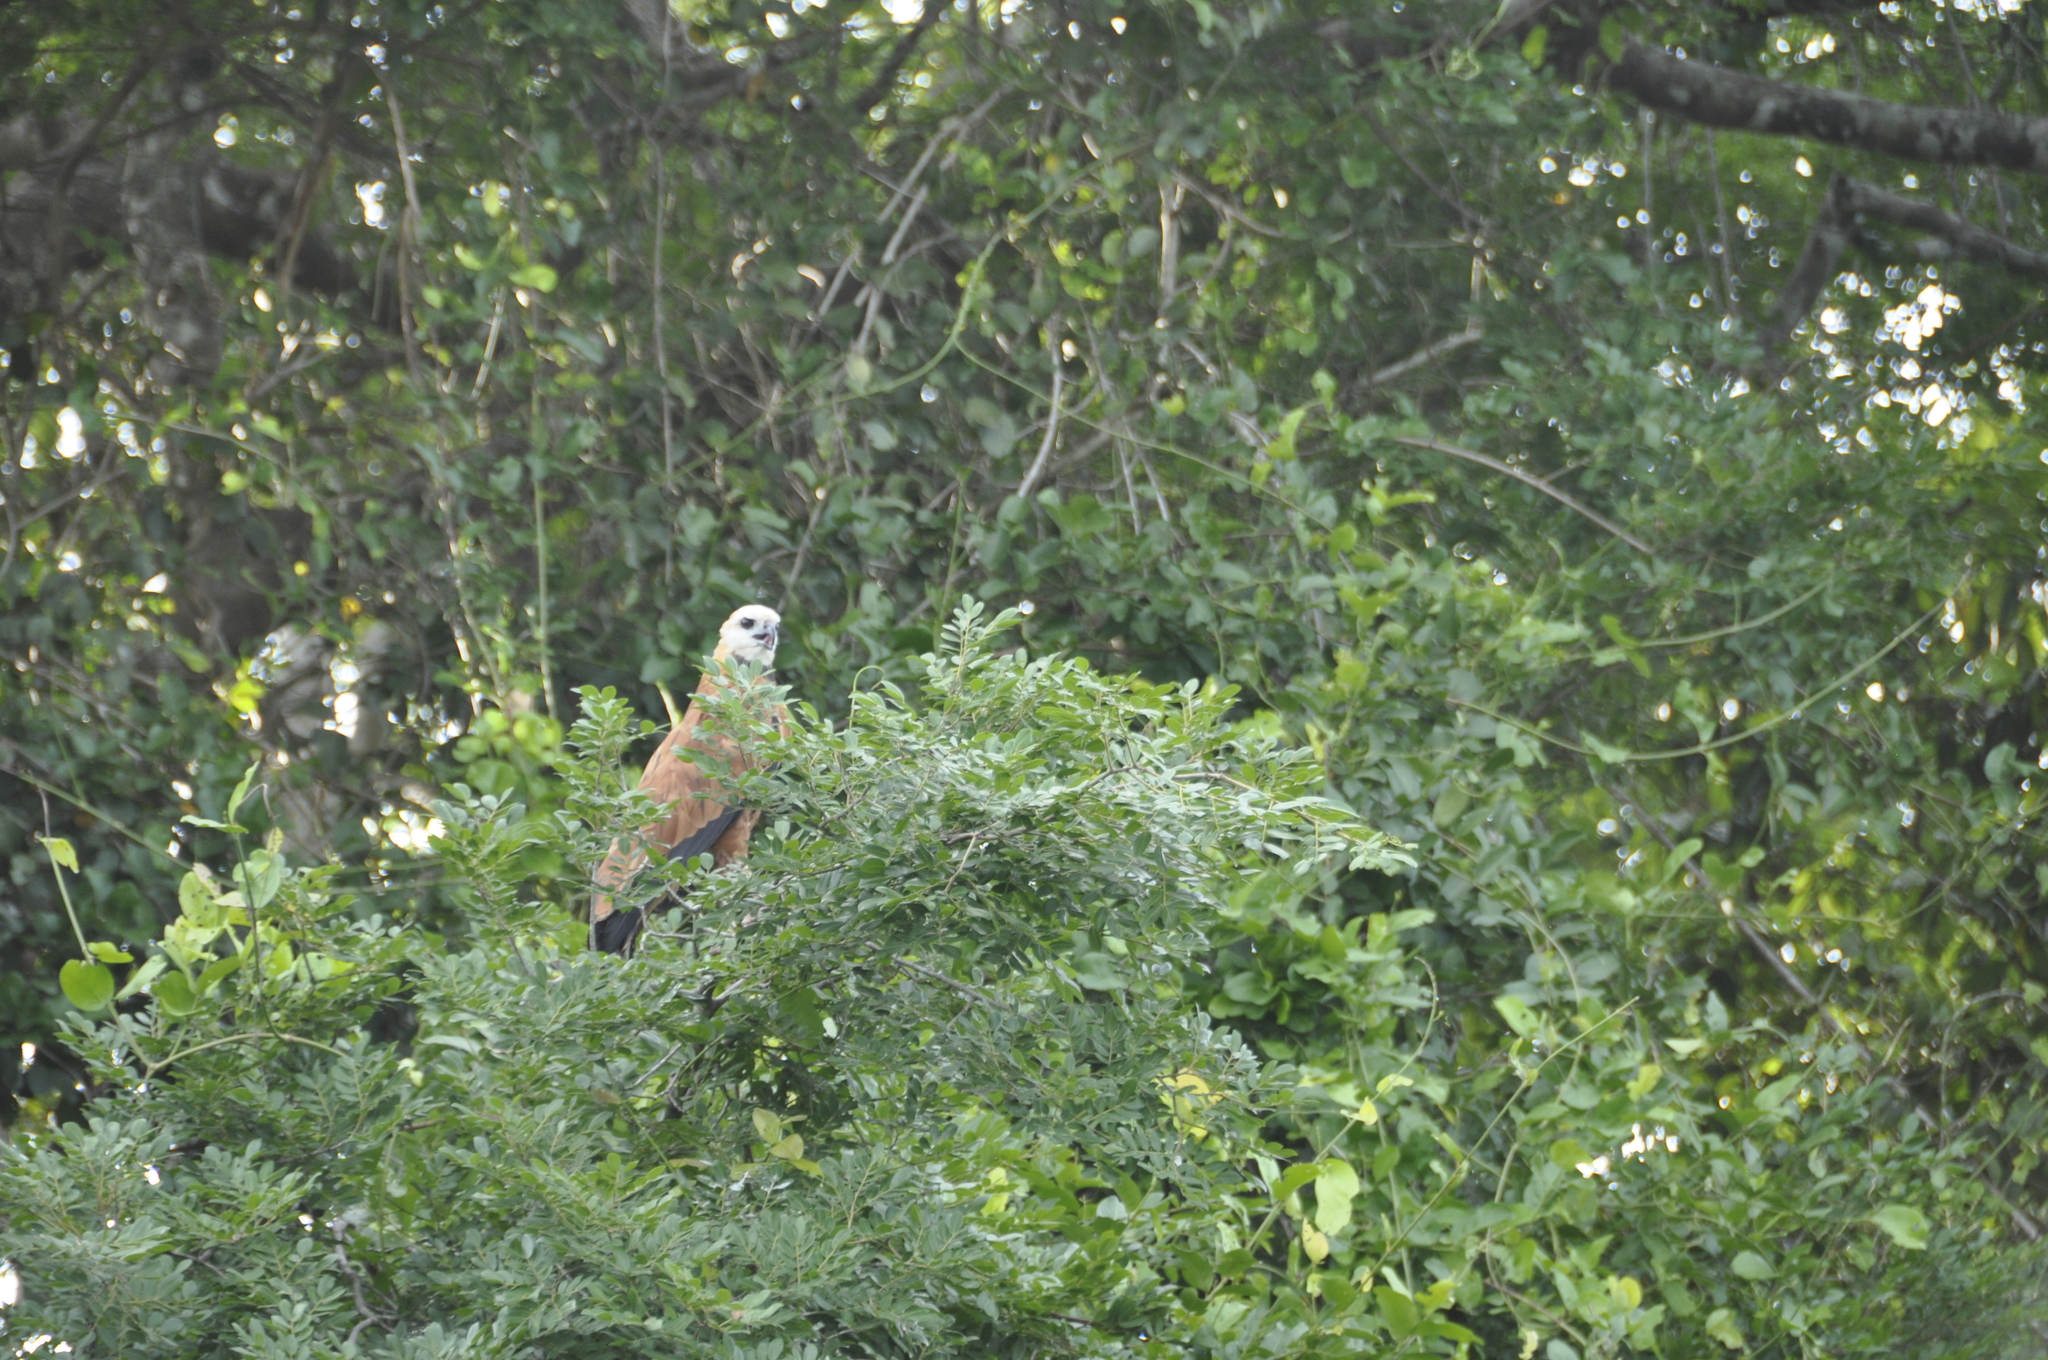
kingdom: Animalia
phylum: Chordata
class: Aves
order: Accipitriformes
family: Accipitridae
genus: Busarellus
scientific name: Busarellus nigricollis
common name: Black-collared hawk
